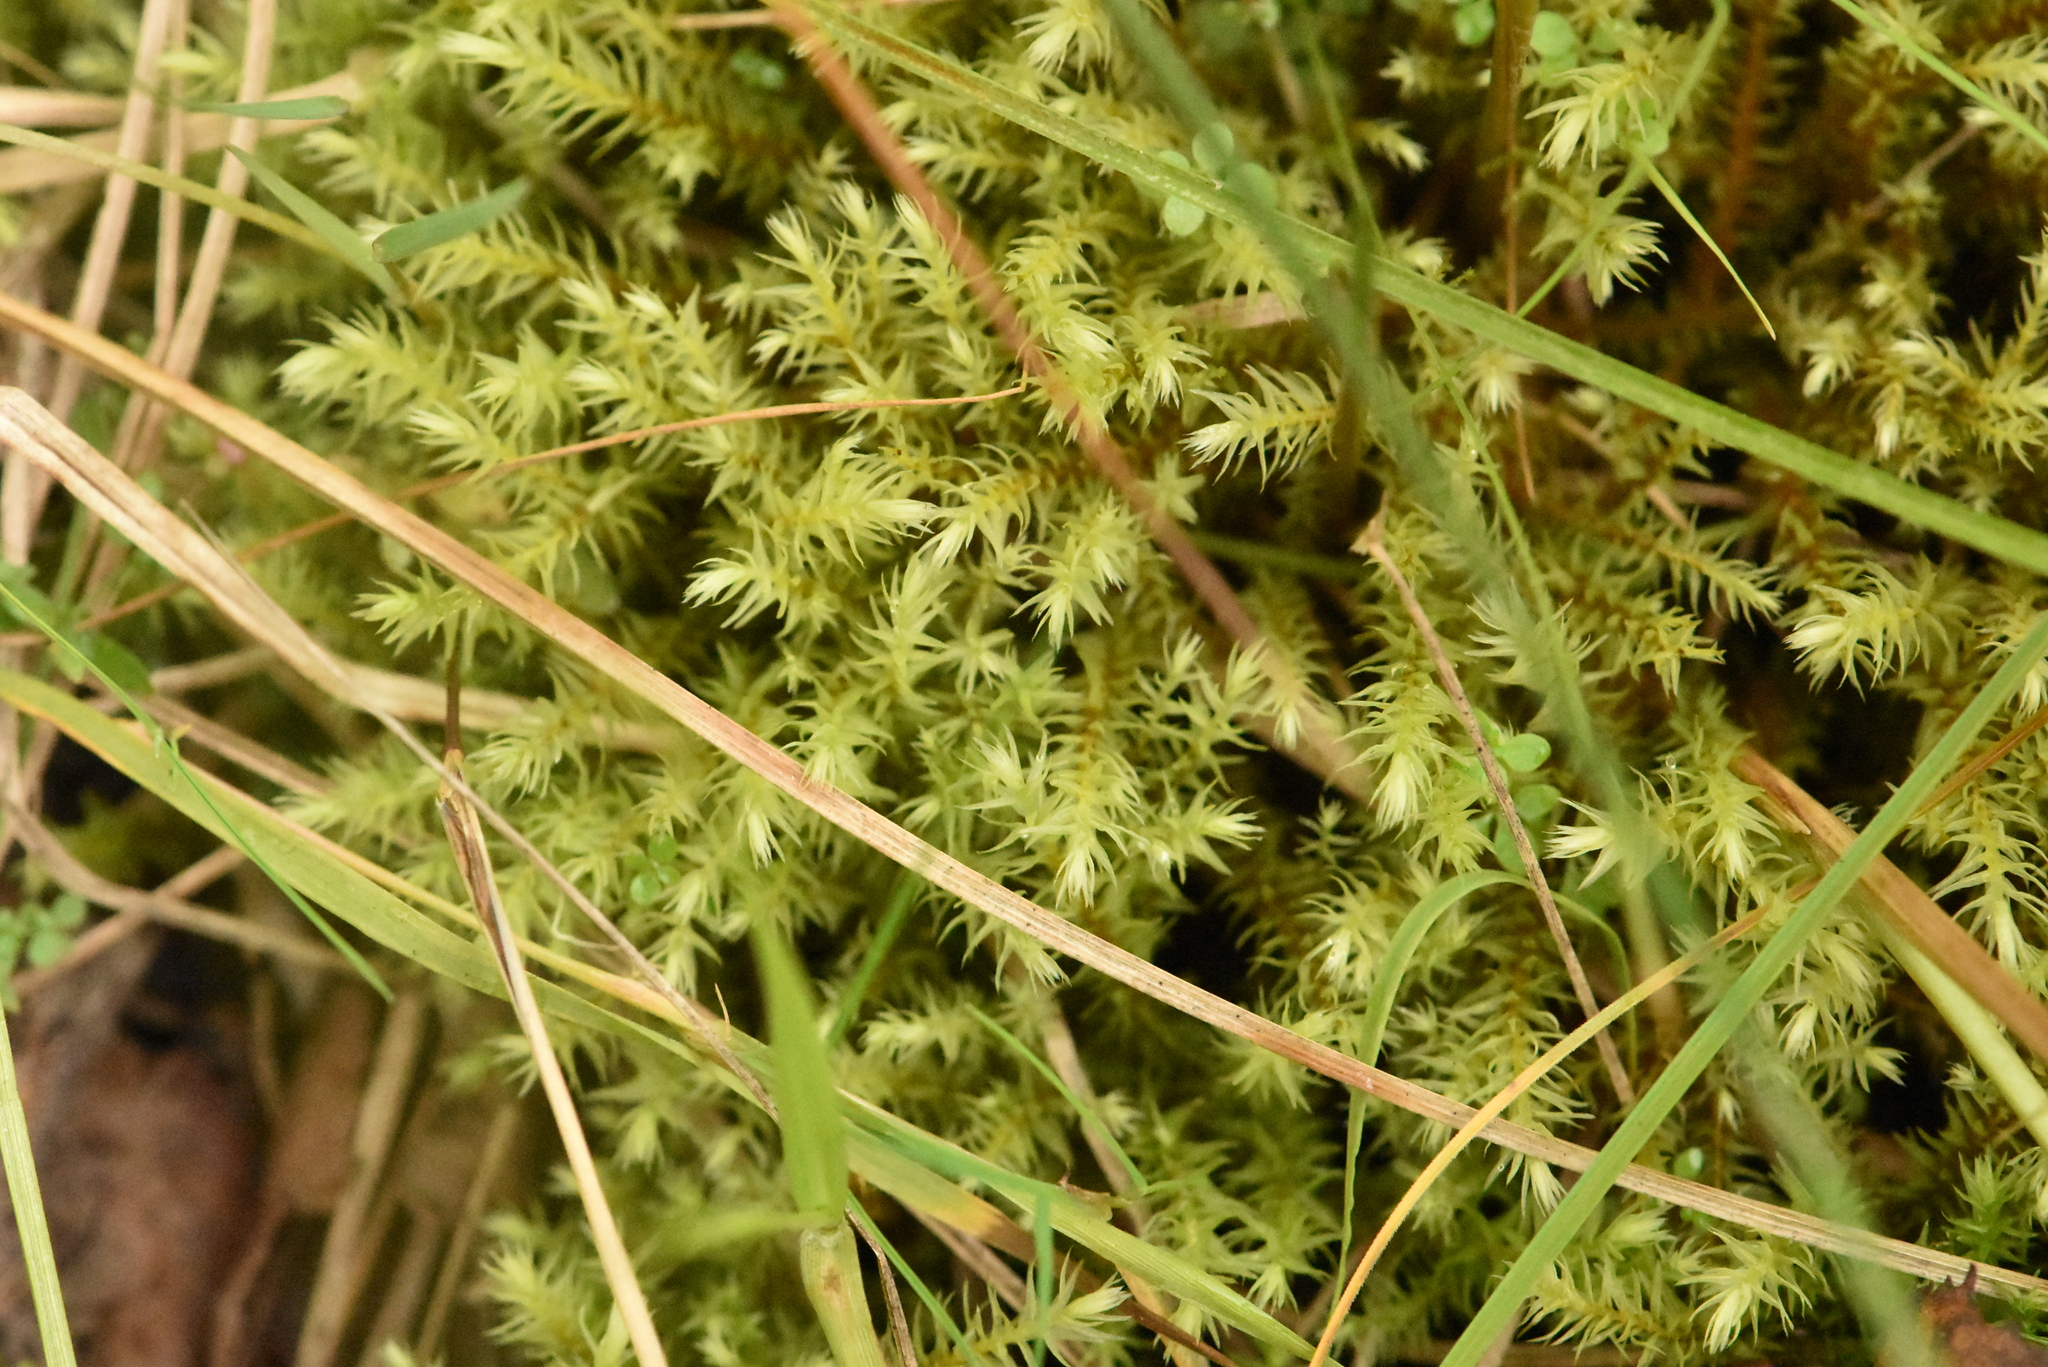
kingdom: Plantae
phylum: Bryophyta
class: Bryopsida
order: Aulacomniales
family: Aulacomniaceae
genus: Aulacomnium
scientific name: Aulacomnium palustre
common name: Bog groove-moss
